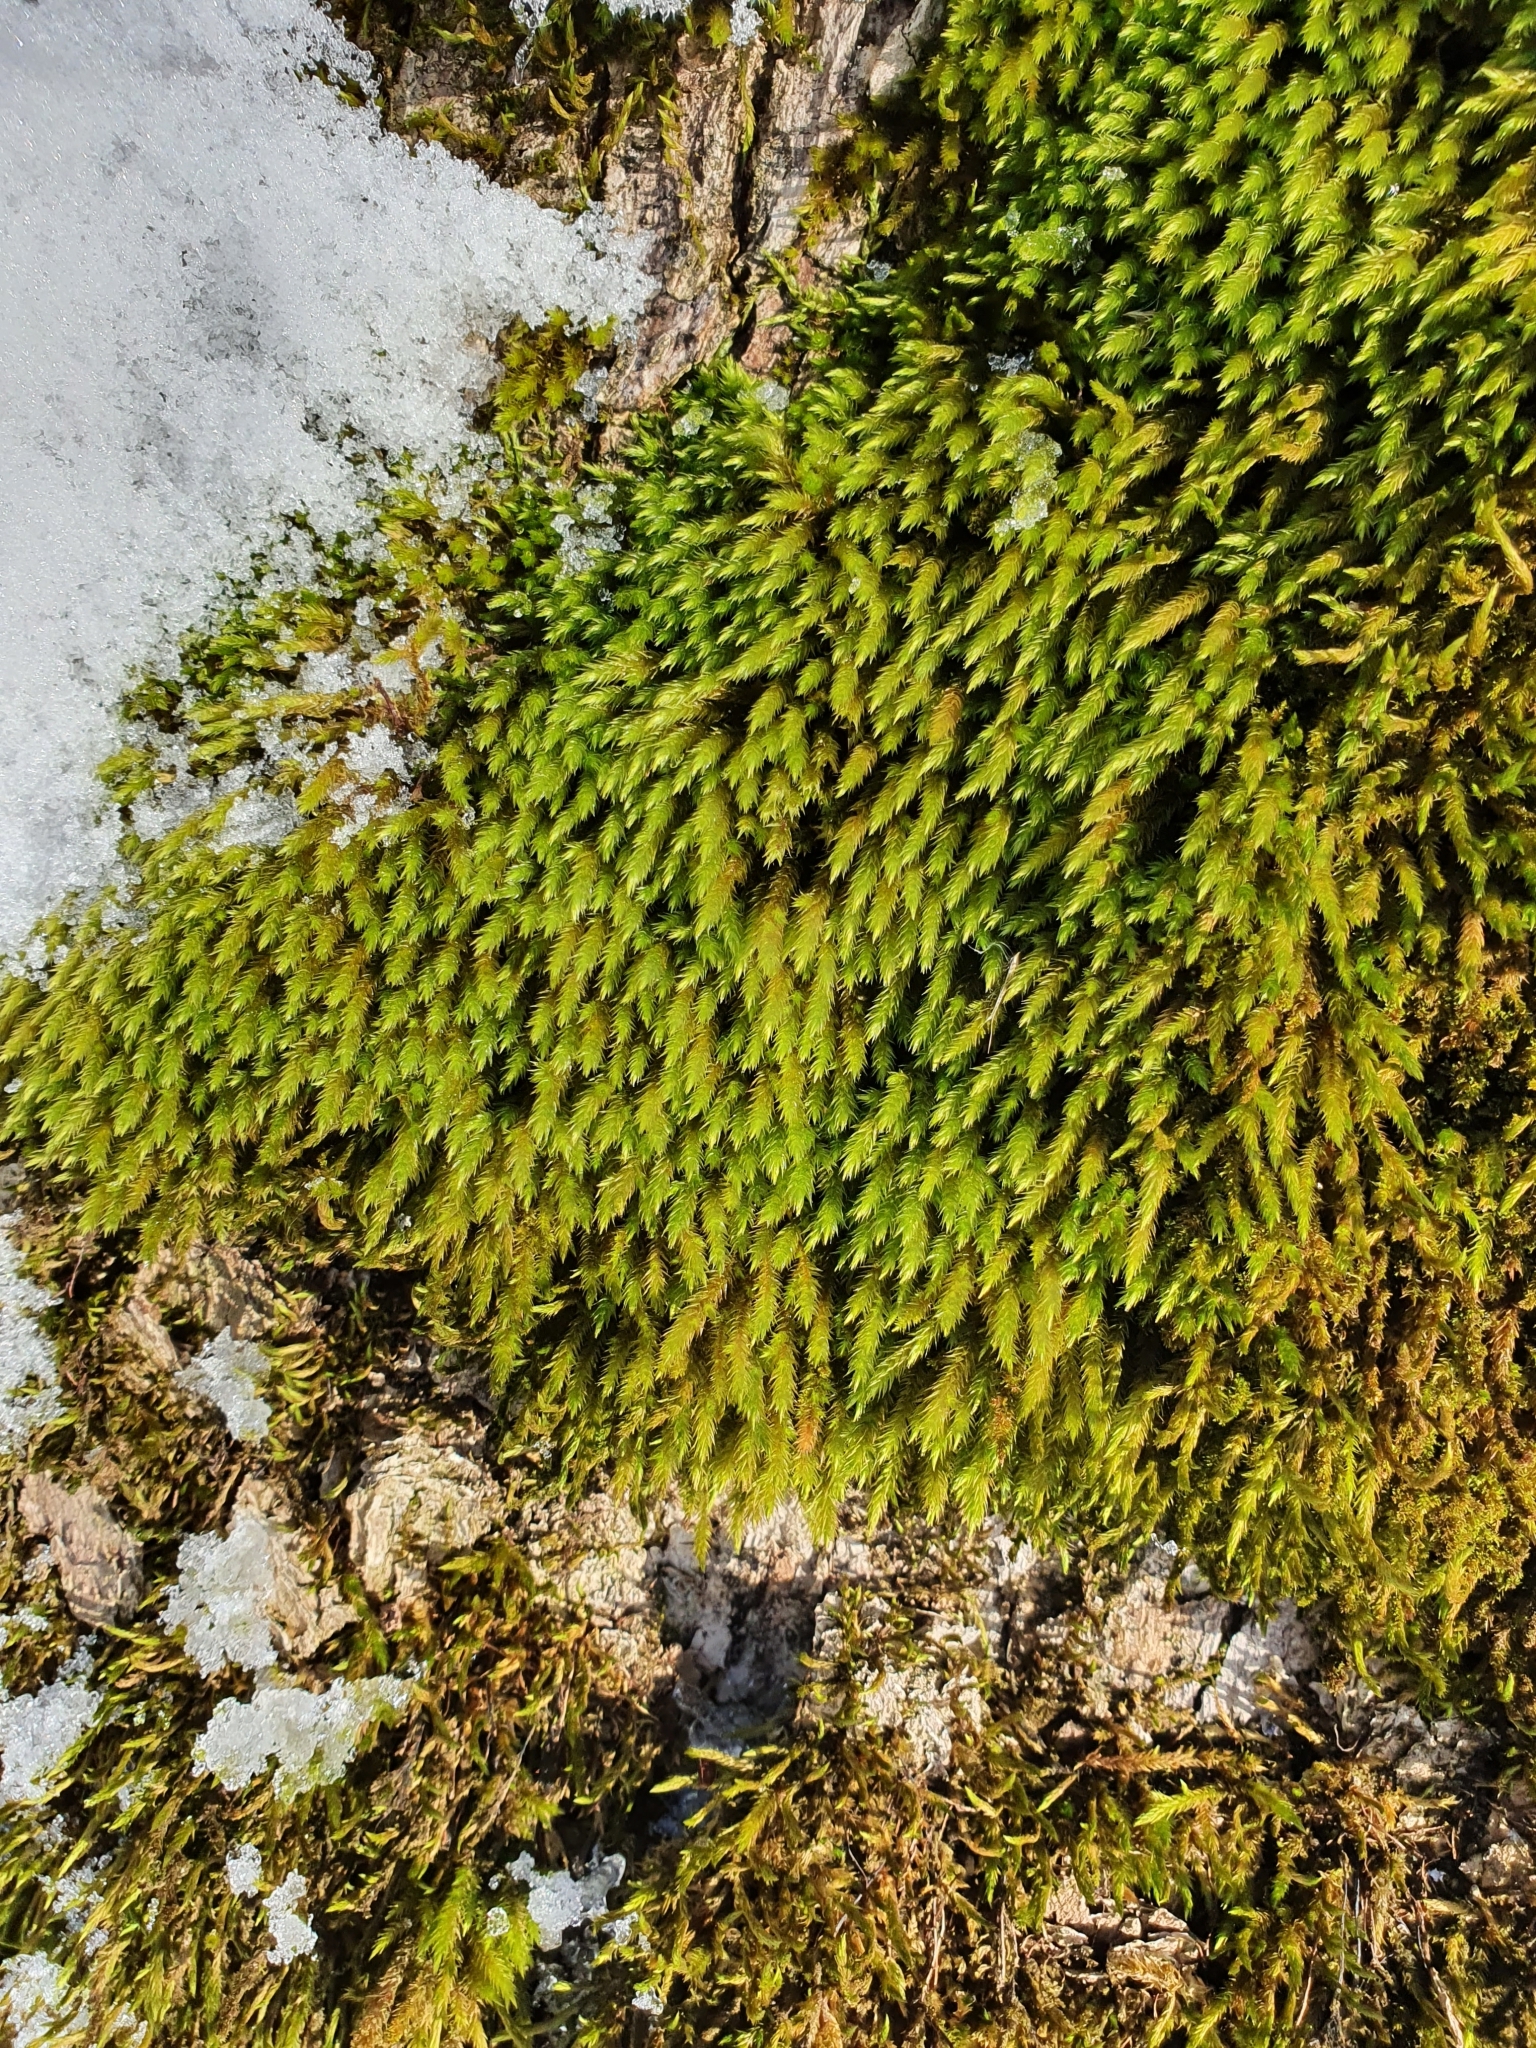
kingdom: Plantae
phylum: Bryophyta
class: Bryopsida
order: Hypnales
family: Leucodontaceae
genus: Leucodon
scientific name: Leucodon sciuroides
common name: Squirrel-tail moss
